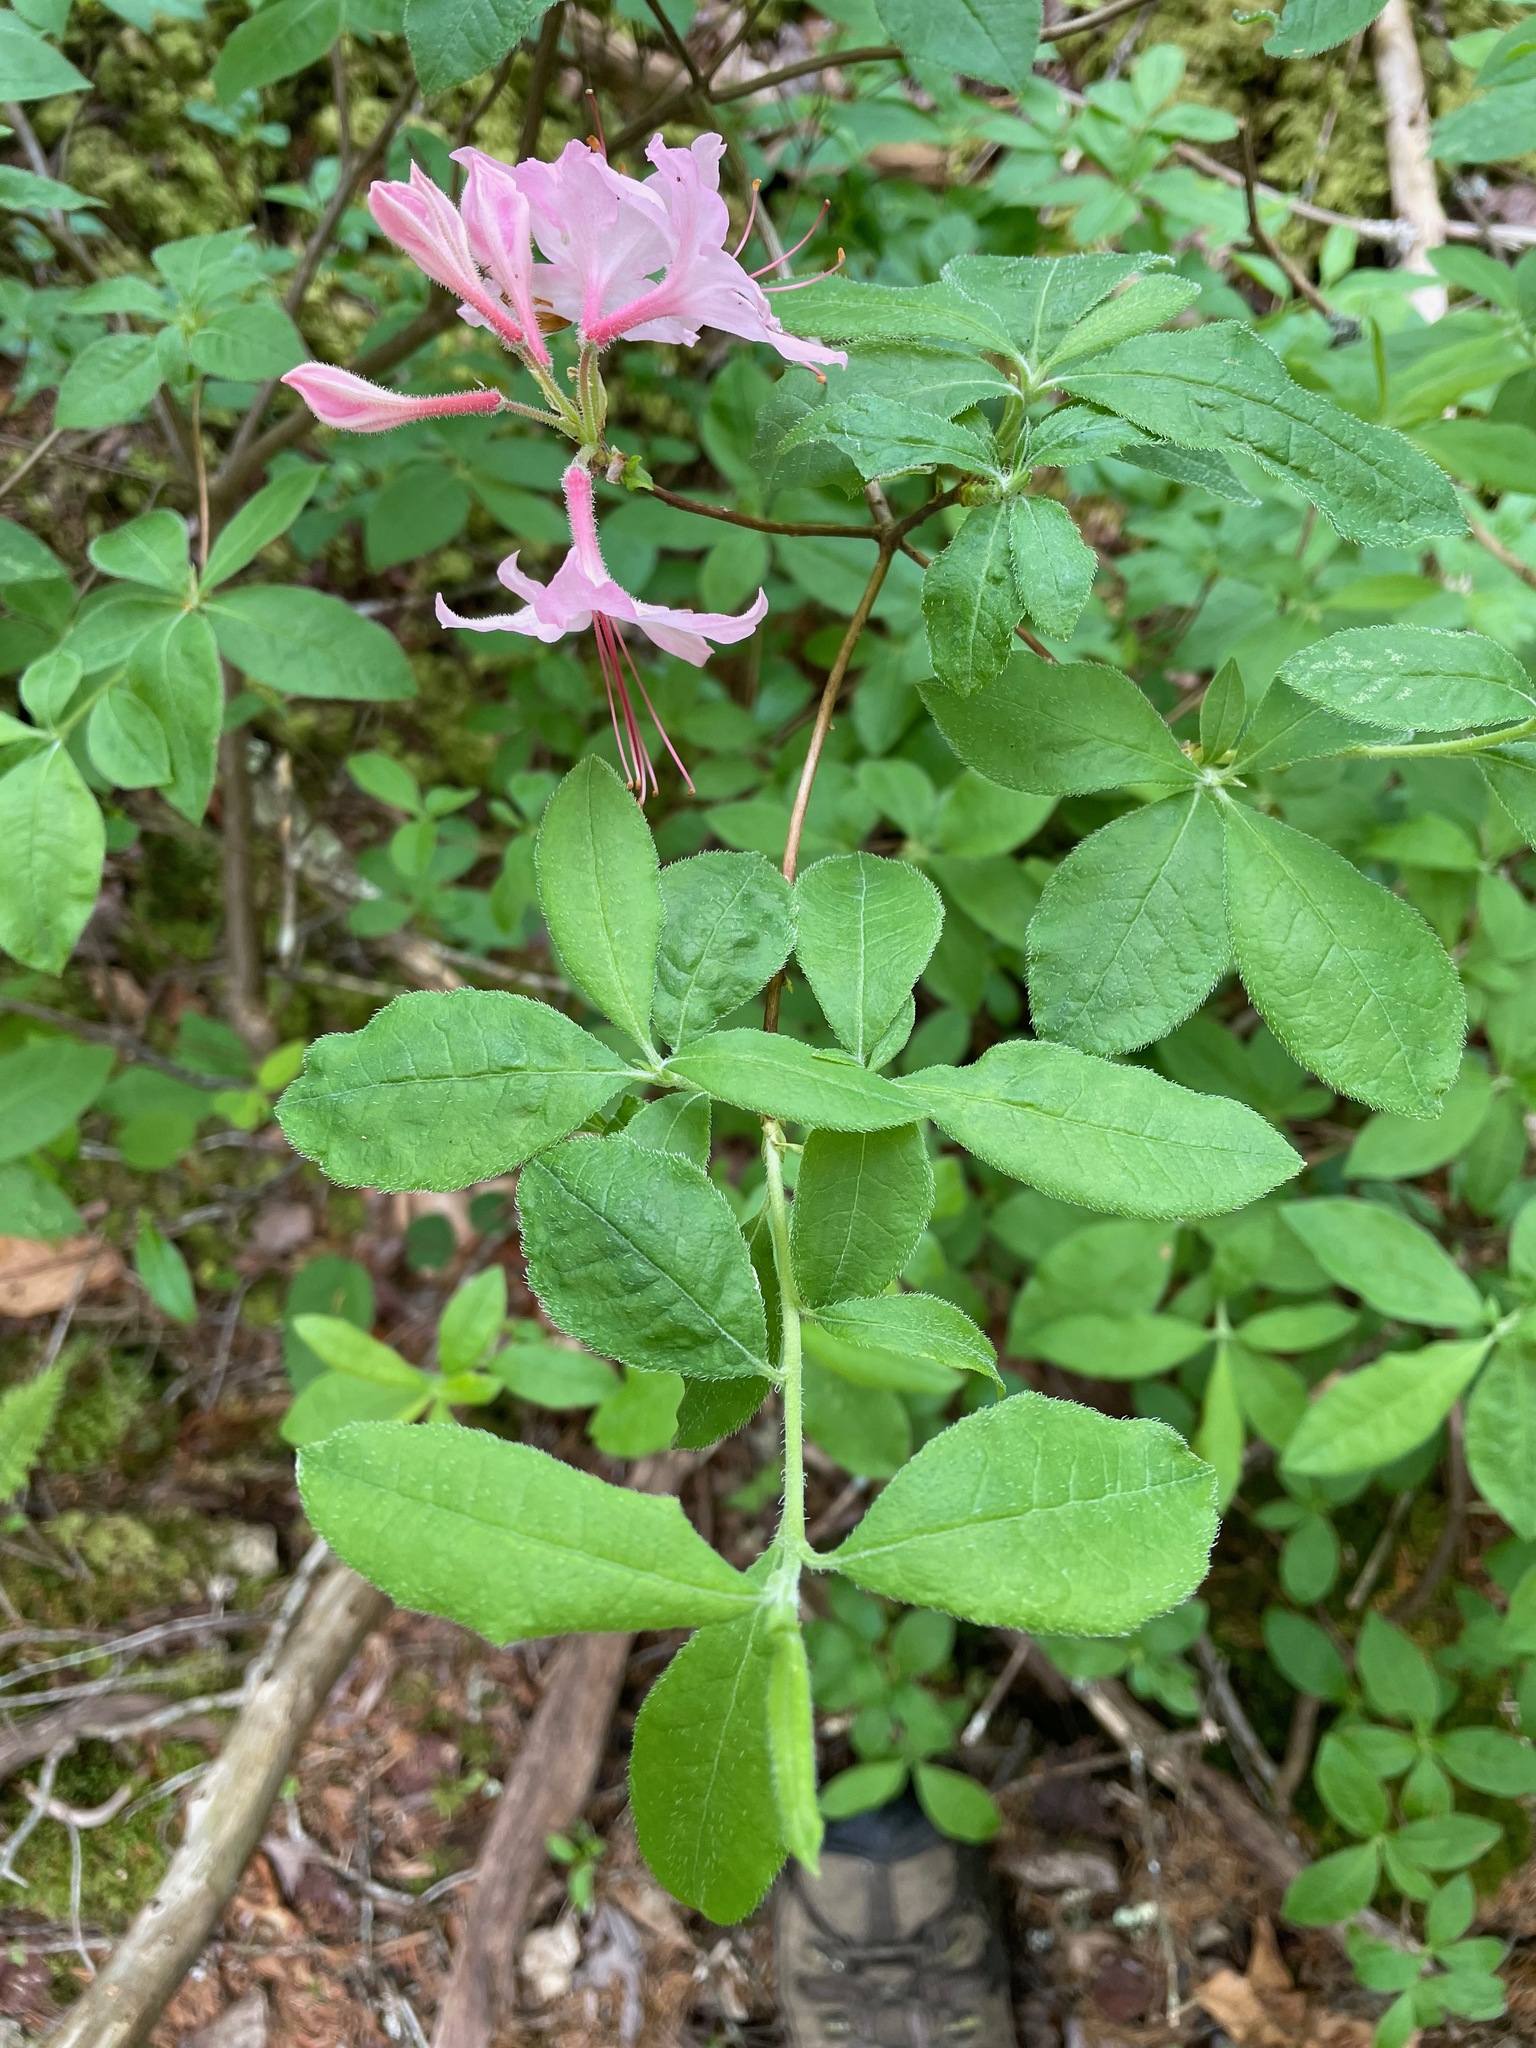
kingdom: Plantae
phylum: Tracheophyta
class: Magnoliopsida
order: Ericales
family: Ericaceae
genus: Rhododendron
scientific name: Rhododendron roseum
